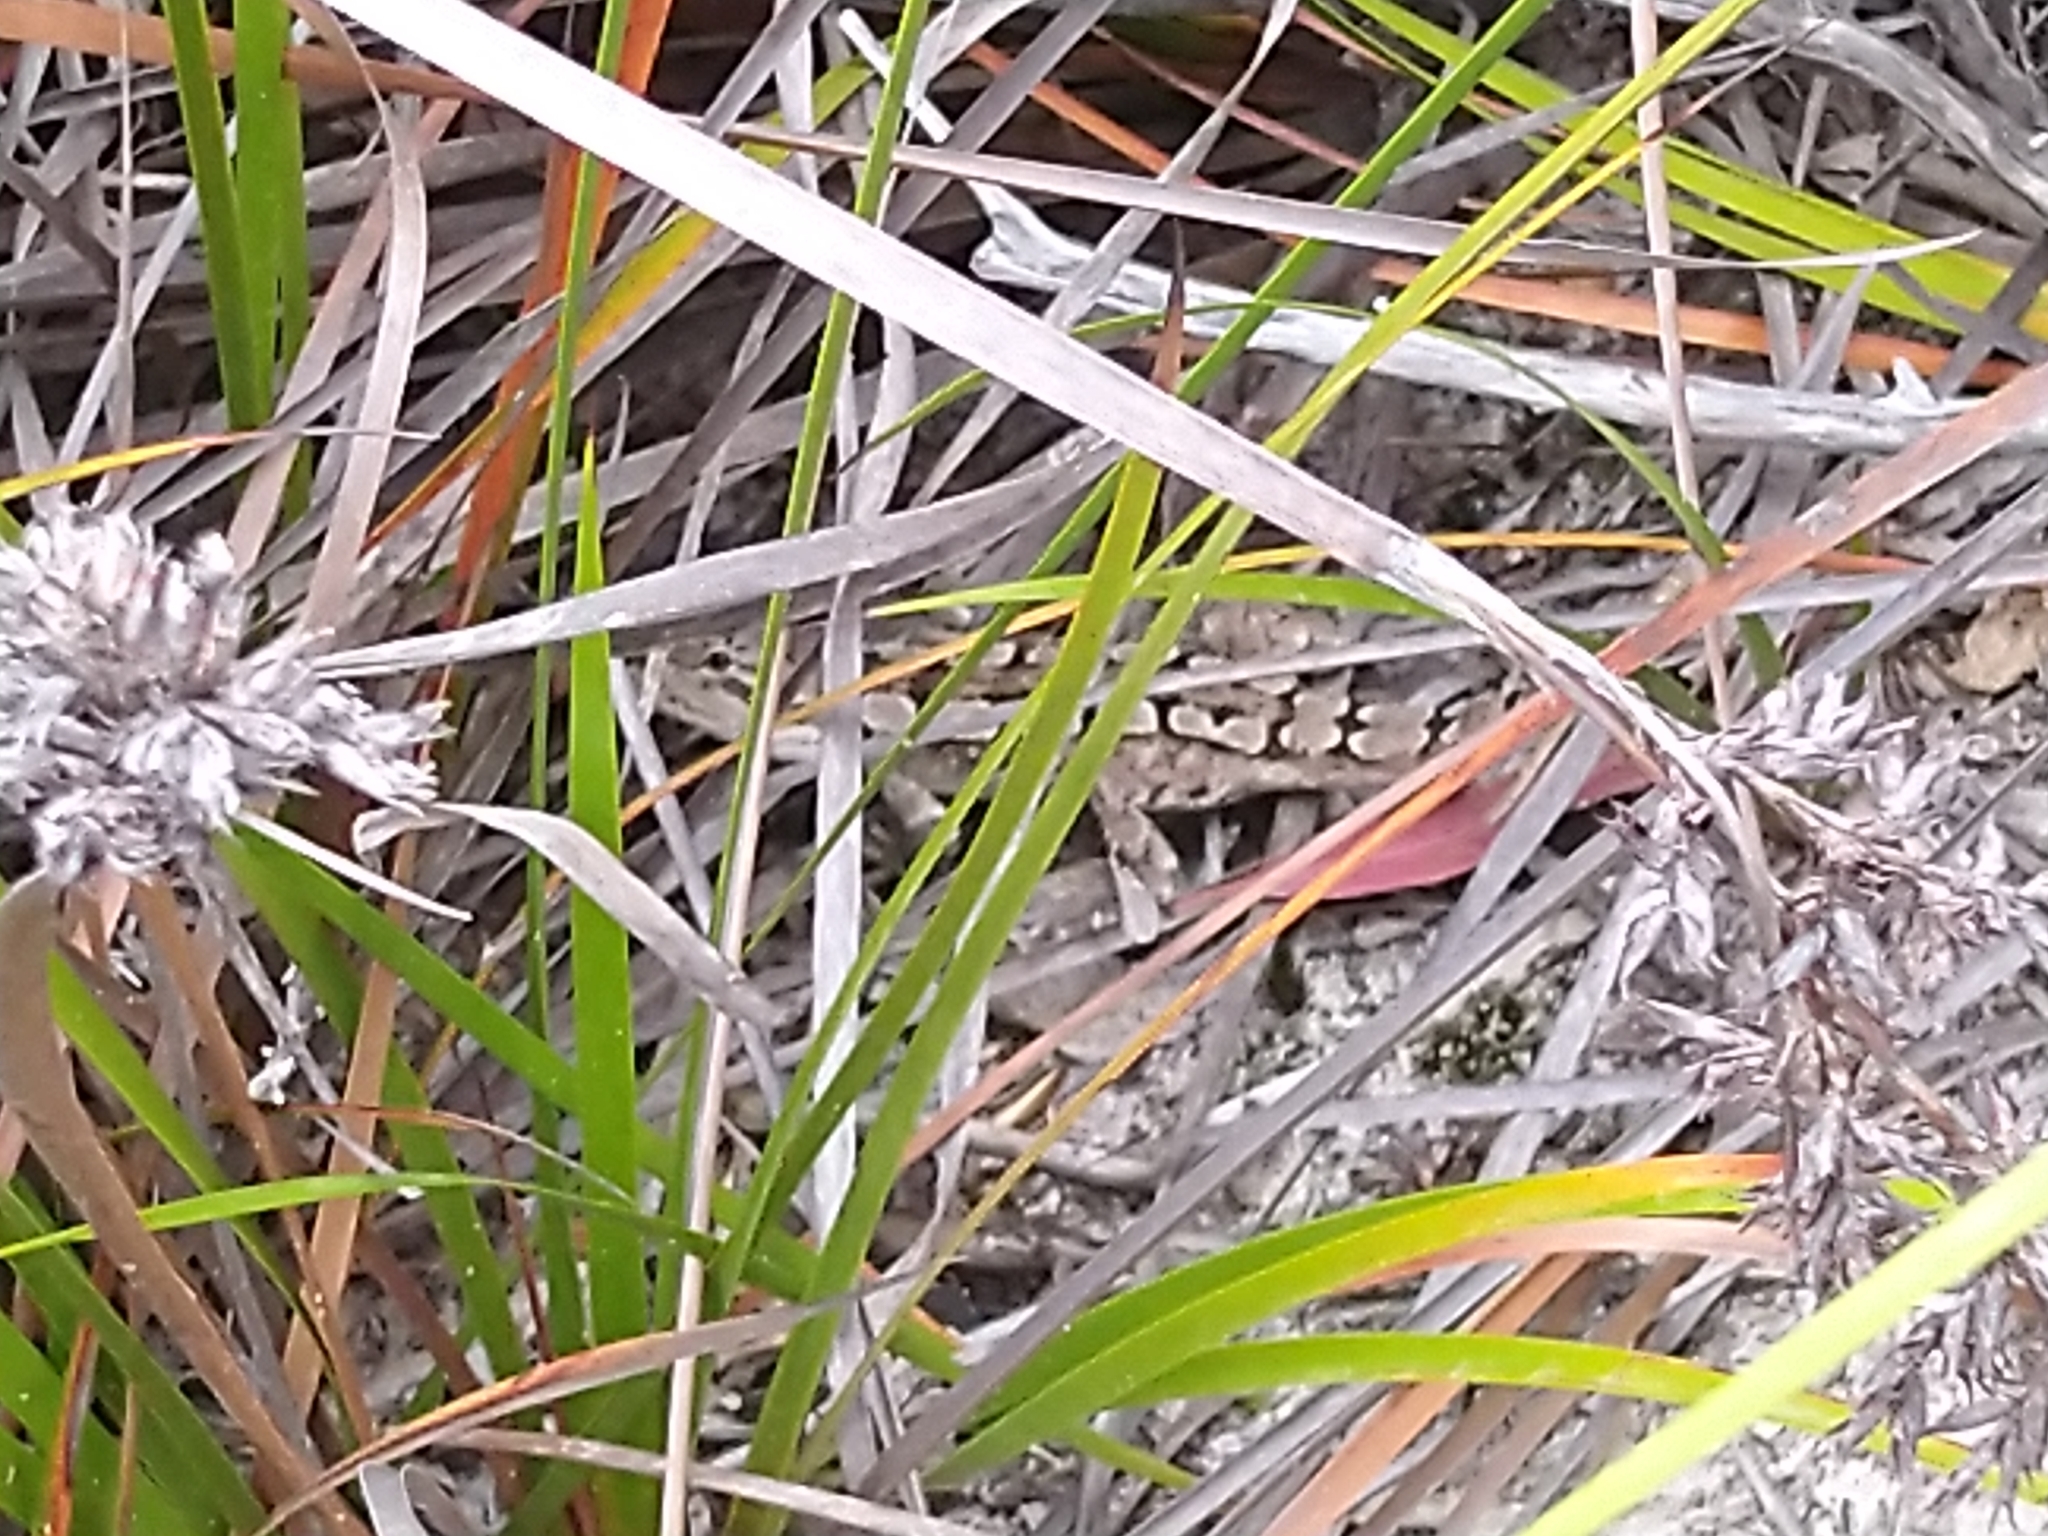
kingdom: Animalia
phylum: Chordata
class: Squamata
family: Agamidae
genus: Amphibolurus
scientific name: Amphibolurus muricatus
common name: Jacky lizard
